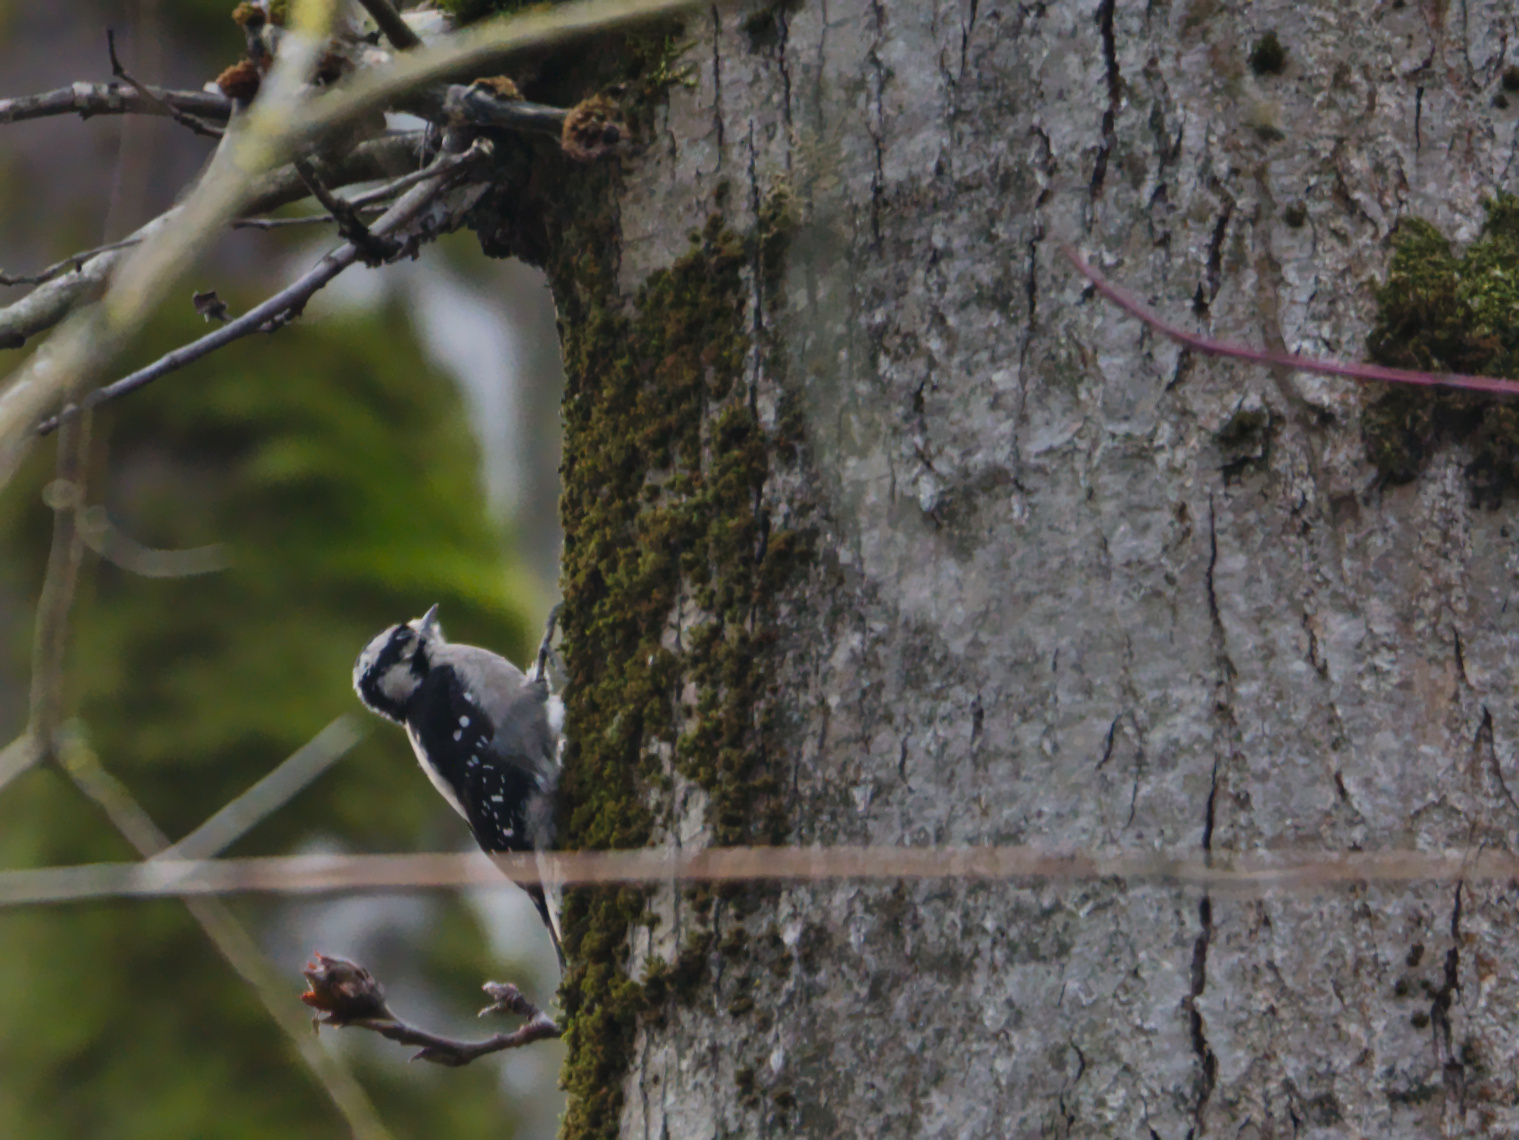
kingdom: Animalia
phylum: Chordata
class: Aves
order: Piciformes
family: Picidae
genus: Dryobates
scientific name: Dryobates pubescens
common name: Downy woodpecker
